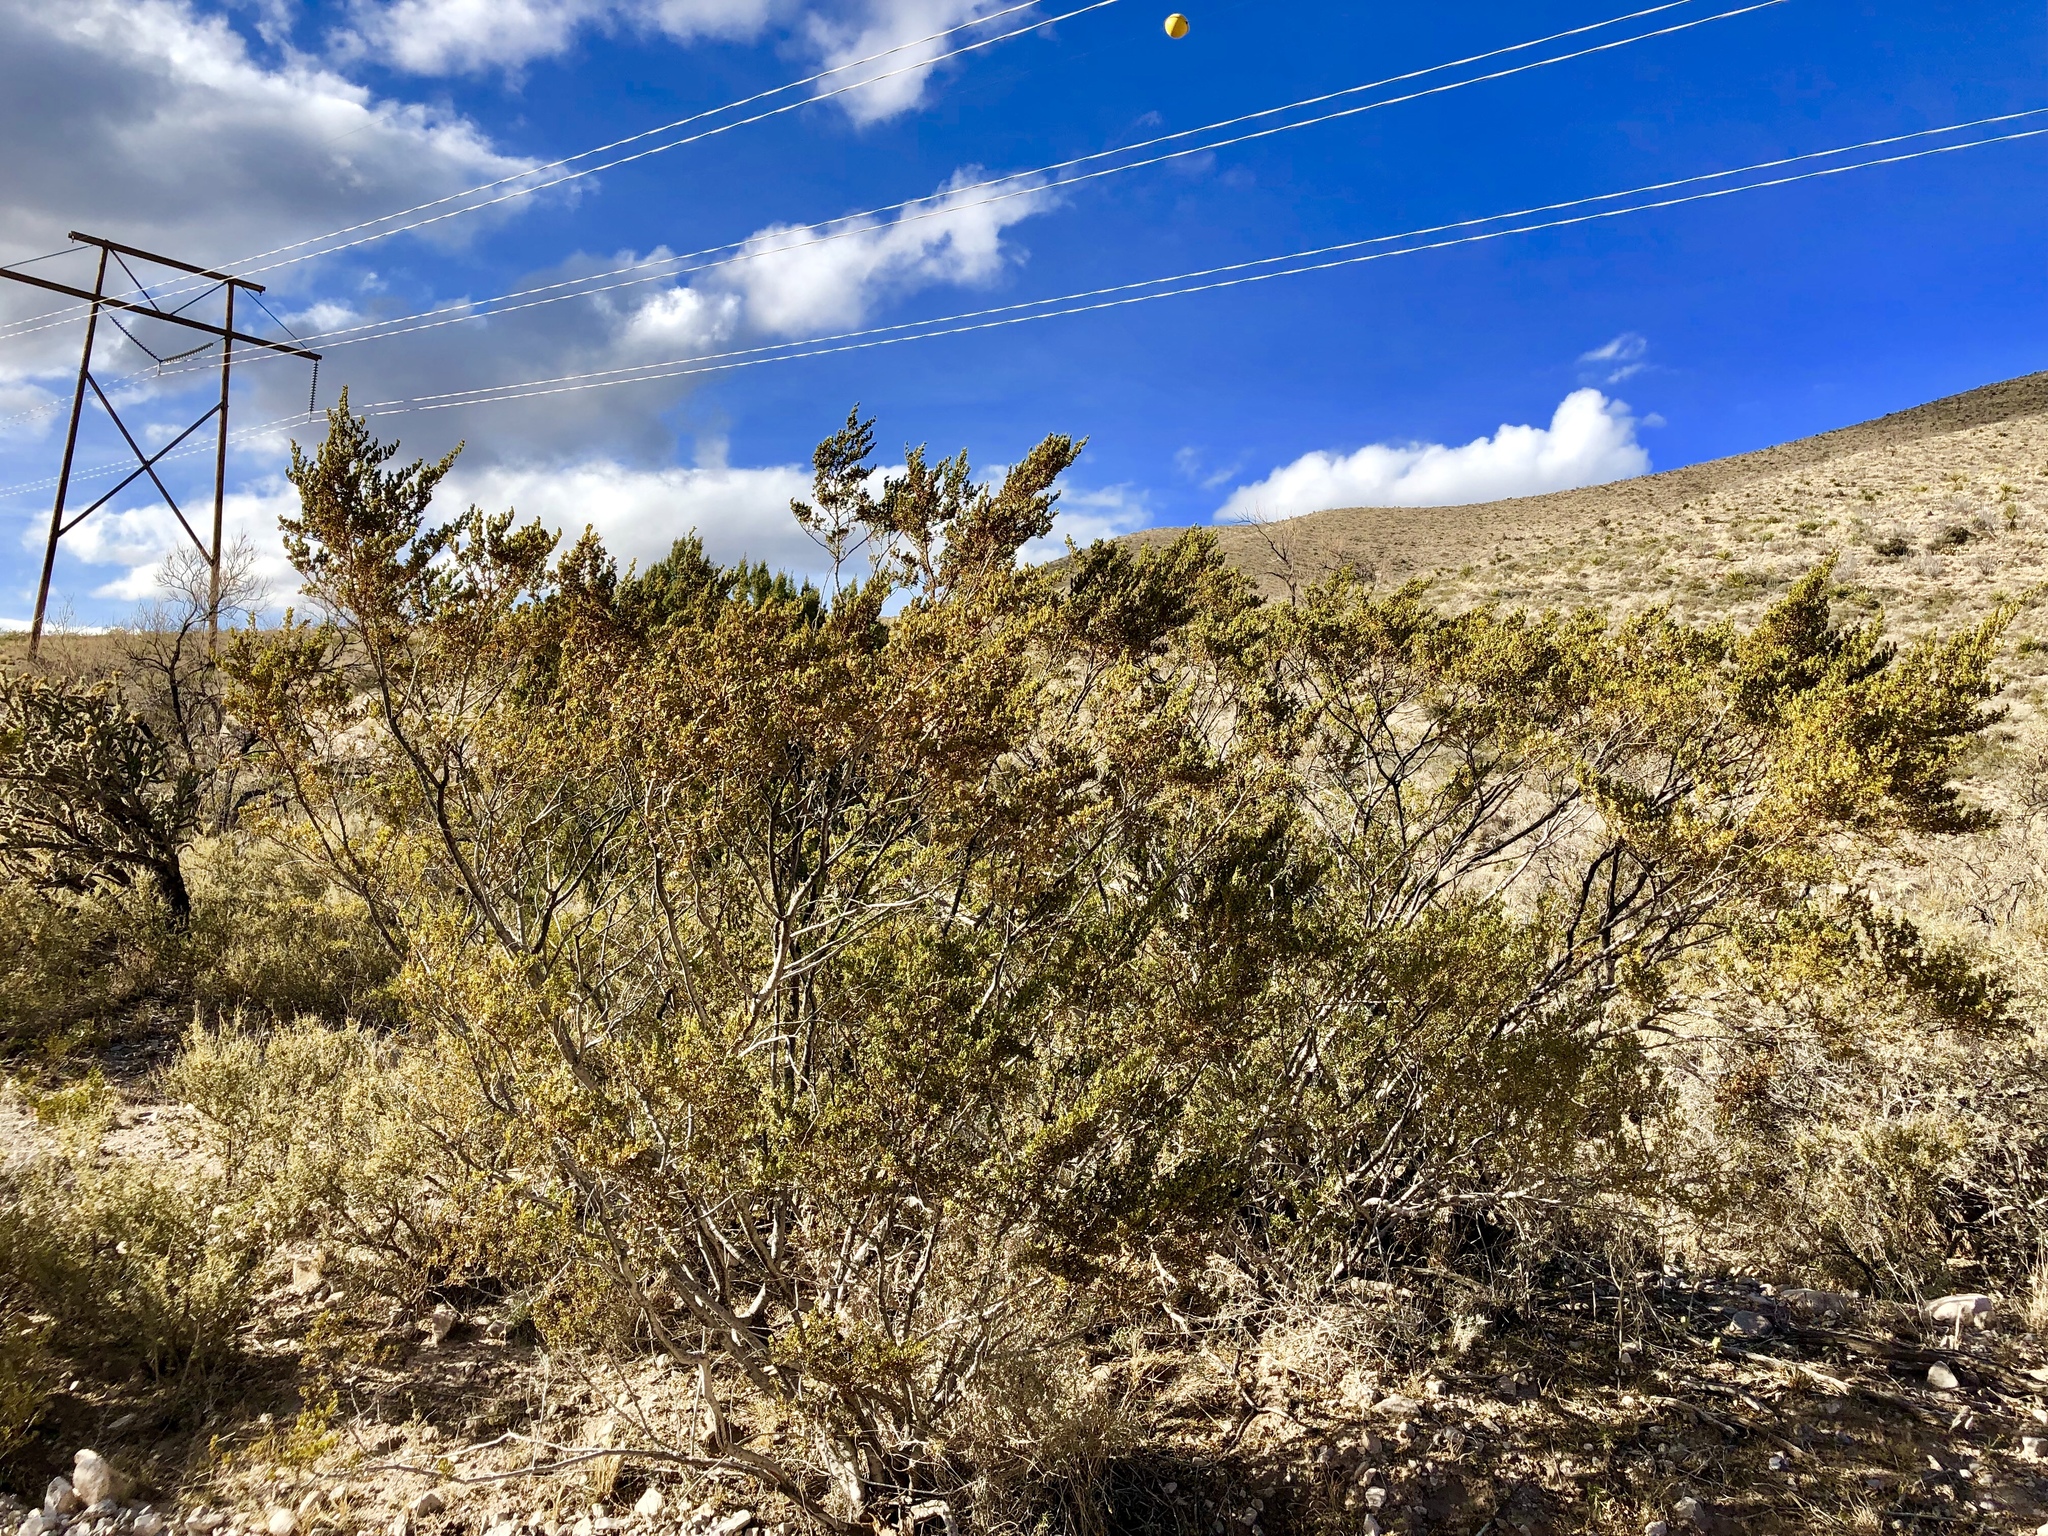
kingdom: Plantae
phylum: Tracheophyta
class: Magnoliopsida
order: Zygophyllales
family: Zygophyllaceae
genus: Larrea
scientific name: Larrea tridentata
